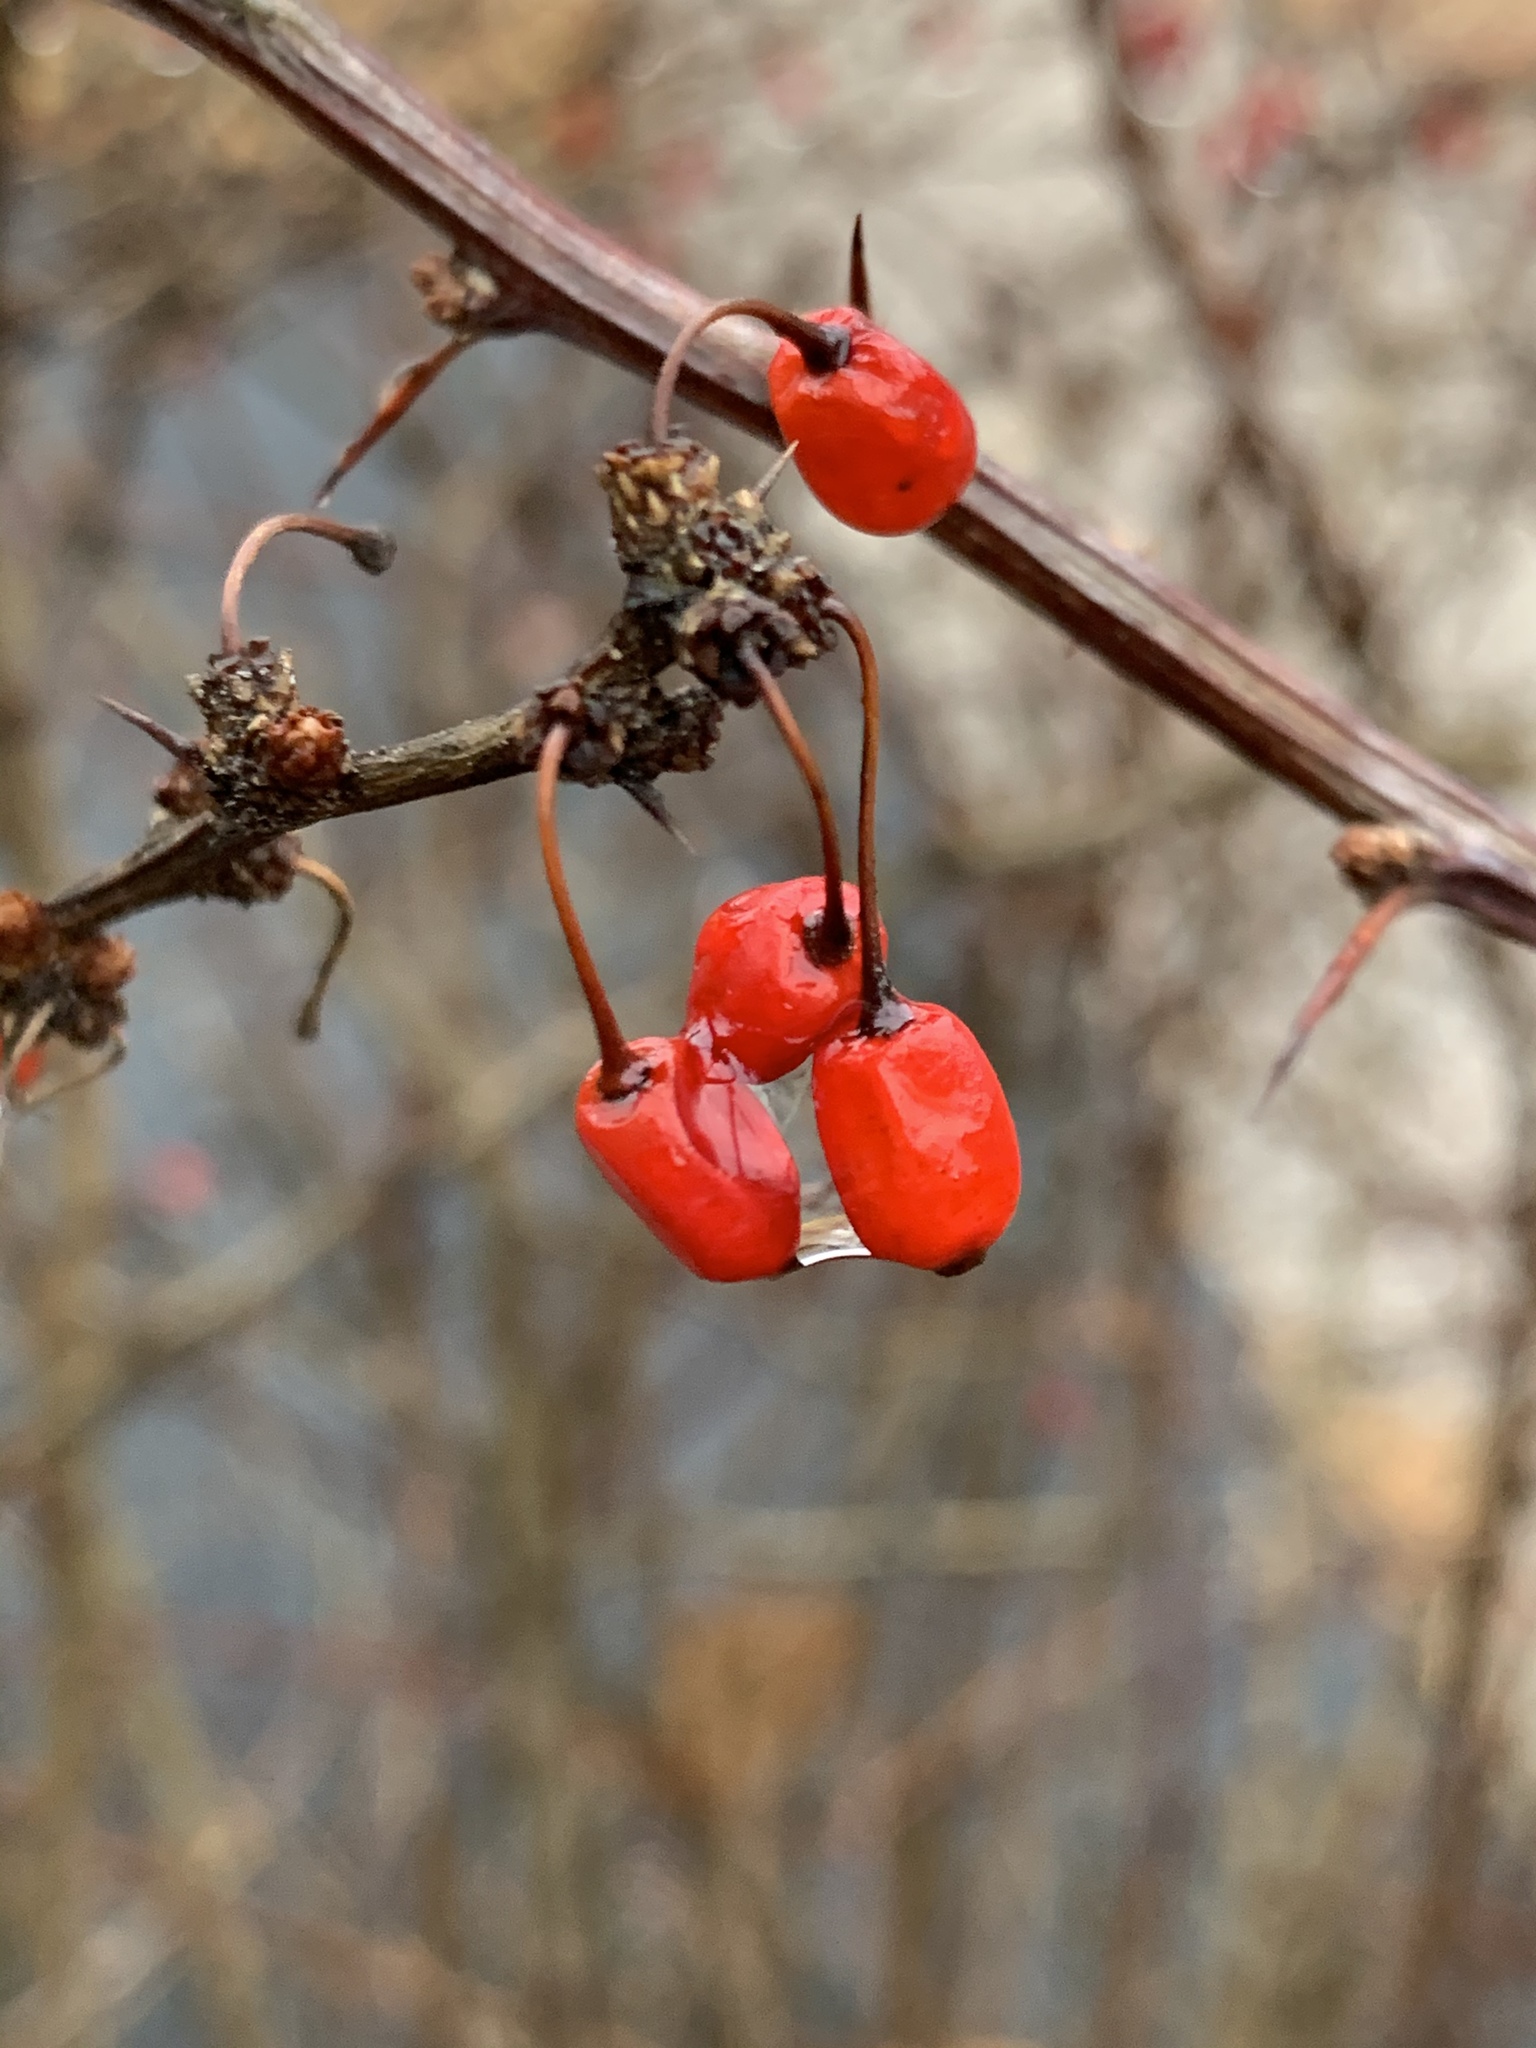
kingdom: Plantae
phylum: Tracheophyta
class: Magnoliopsida
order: Ranunculales
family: Berberidaceae
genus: Berberis
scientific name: Berberis thunbergii
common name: Japanese barberry
